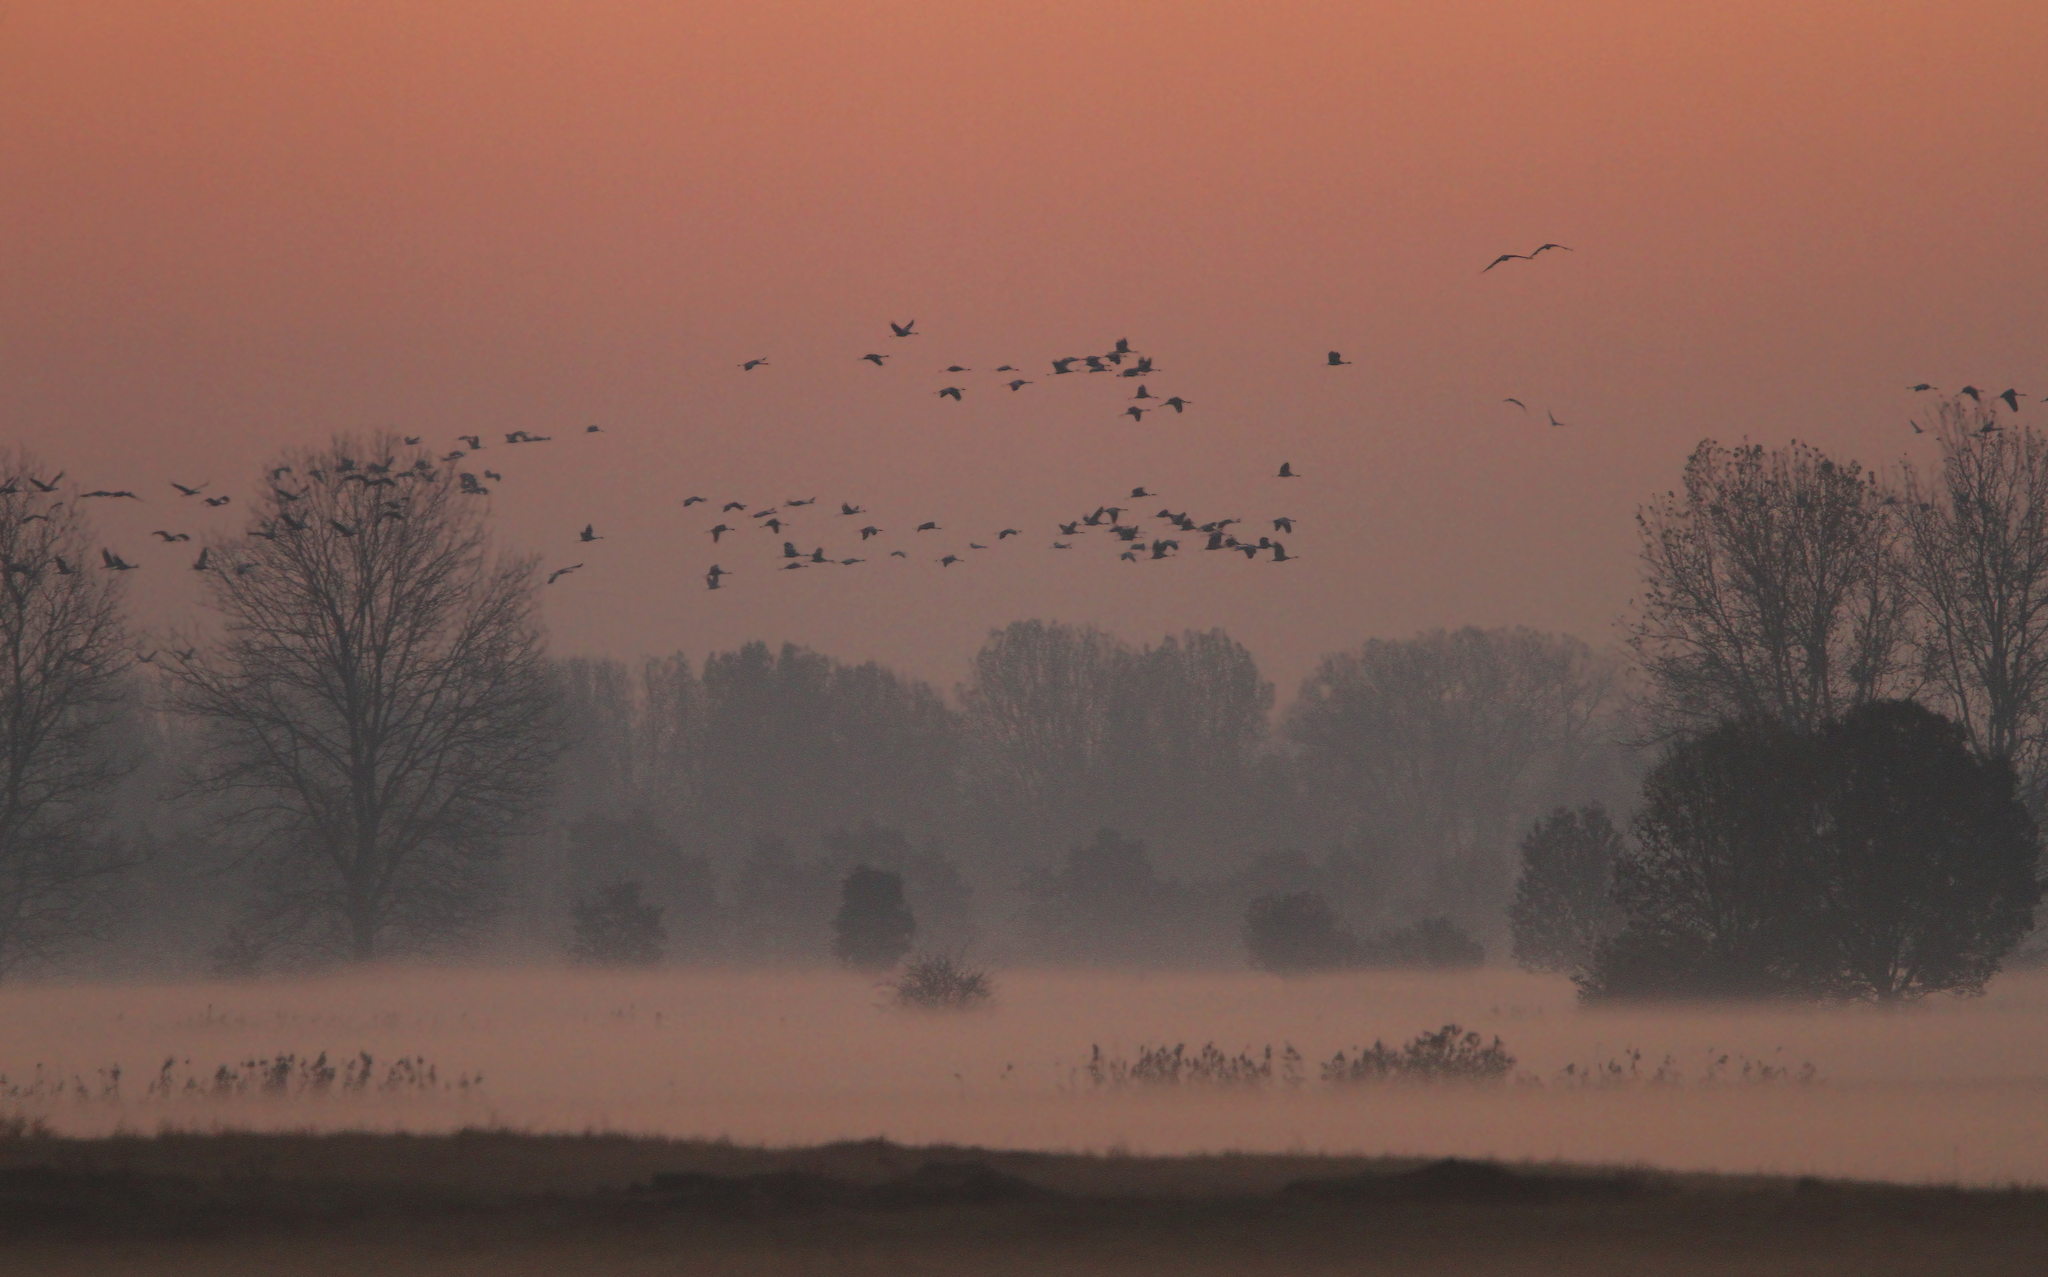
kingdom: Animalia
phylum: Chordata
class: Aves
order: Gruiformes
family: Gruidae
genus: Grus
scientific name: Grus grus
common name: Common crane
